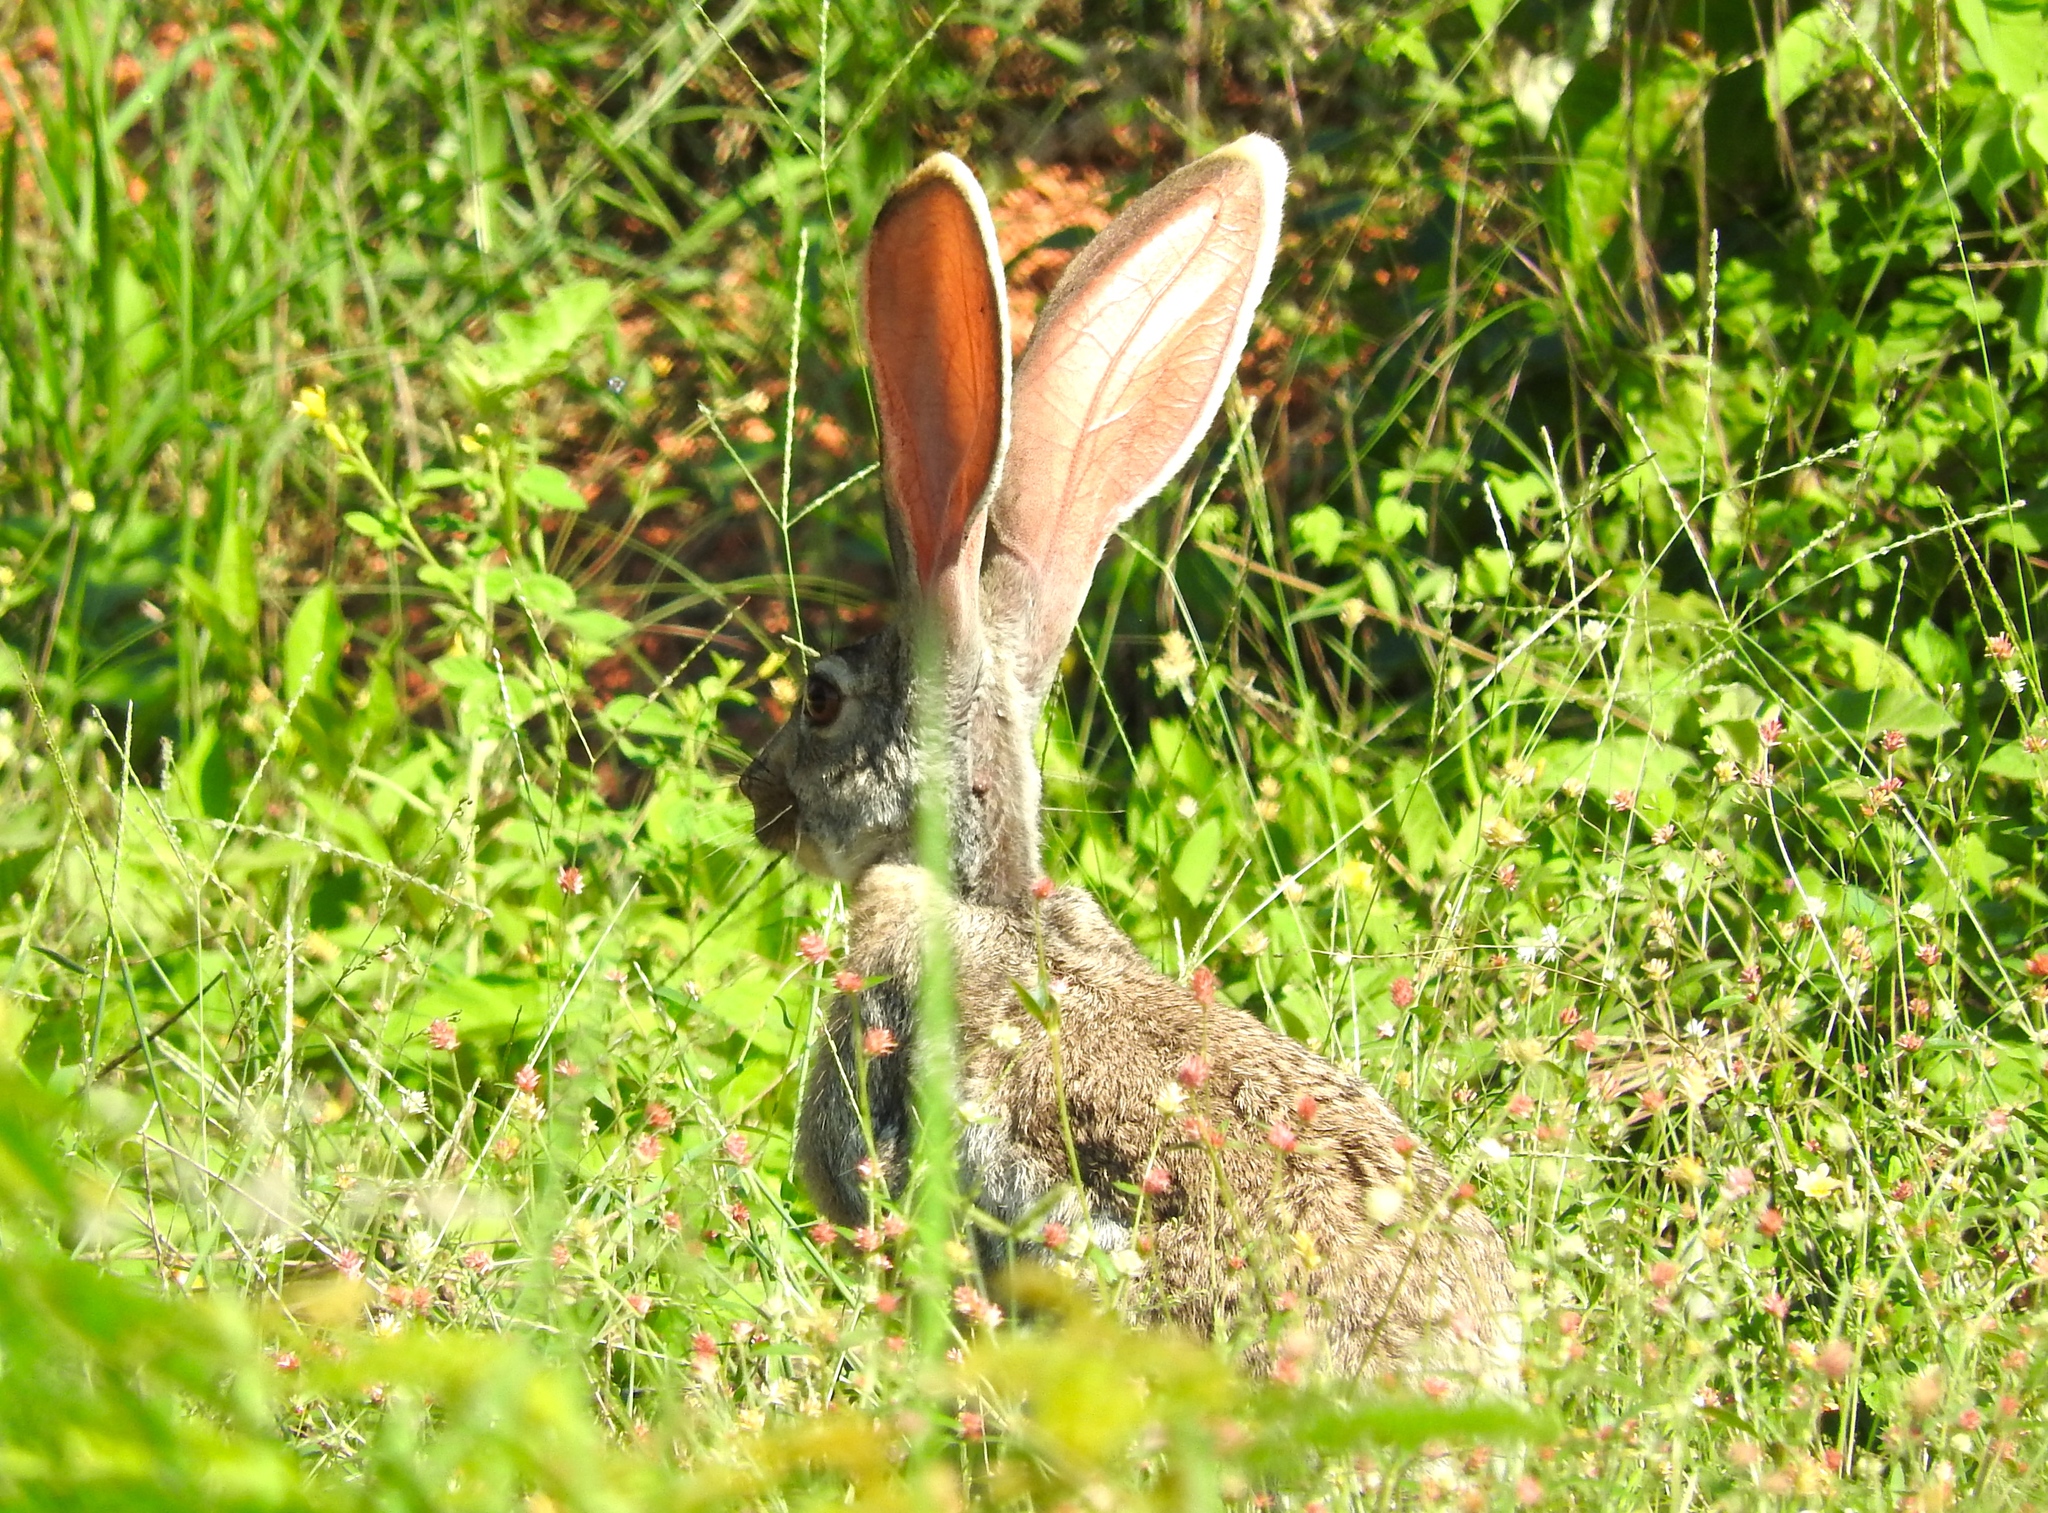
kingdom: Animalia
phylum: Chordata
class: Mammalia
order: Lagomorpha
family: Leporidae
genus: Lepus
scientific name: Lepus alleni
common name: Antelope jackrabbit
